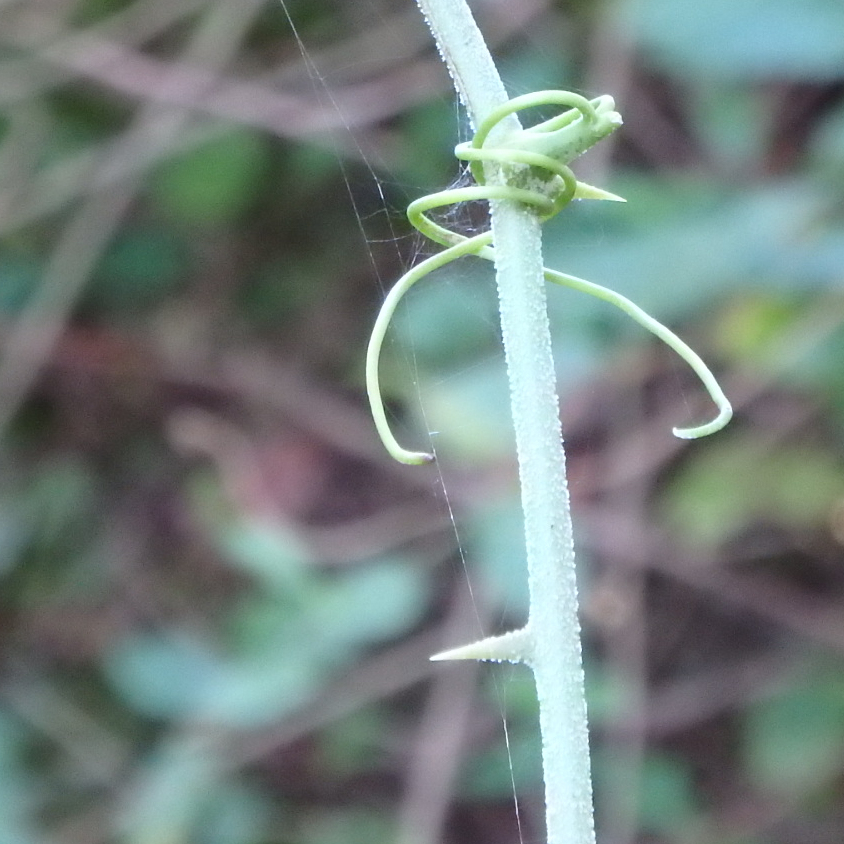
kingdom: Plantae
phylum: Tracheophyta
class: Liliopsida
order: Liliales
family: Smilacaceae
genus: Smilax
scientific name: Smilax bona-nox
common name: Catbrier
